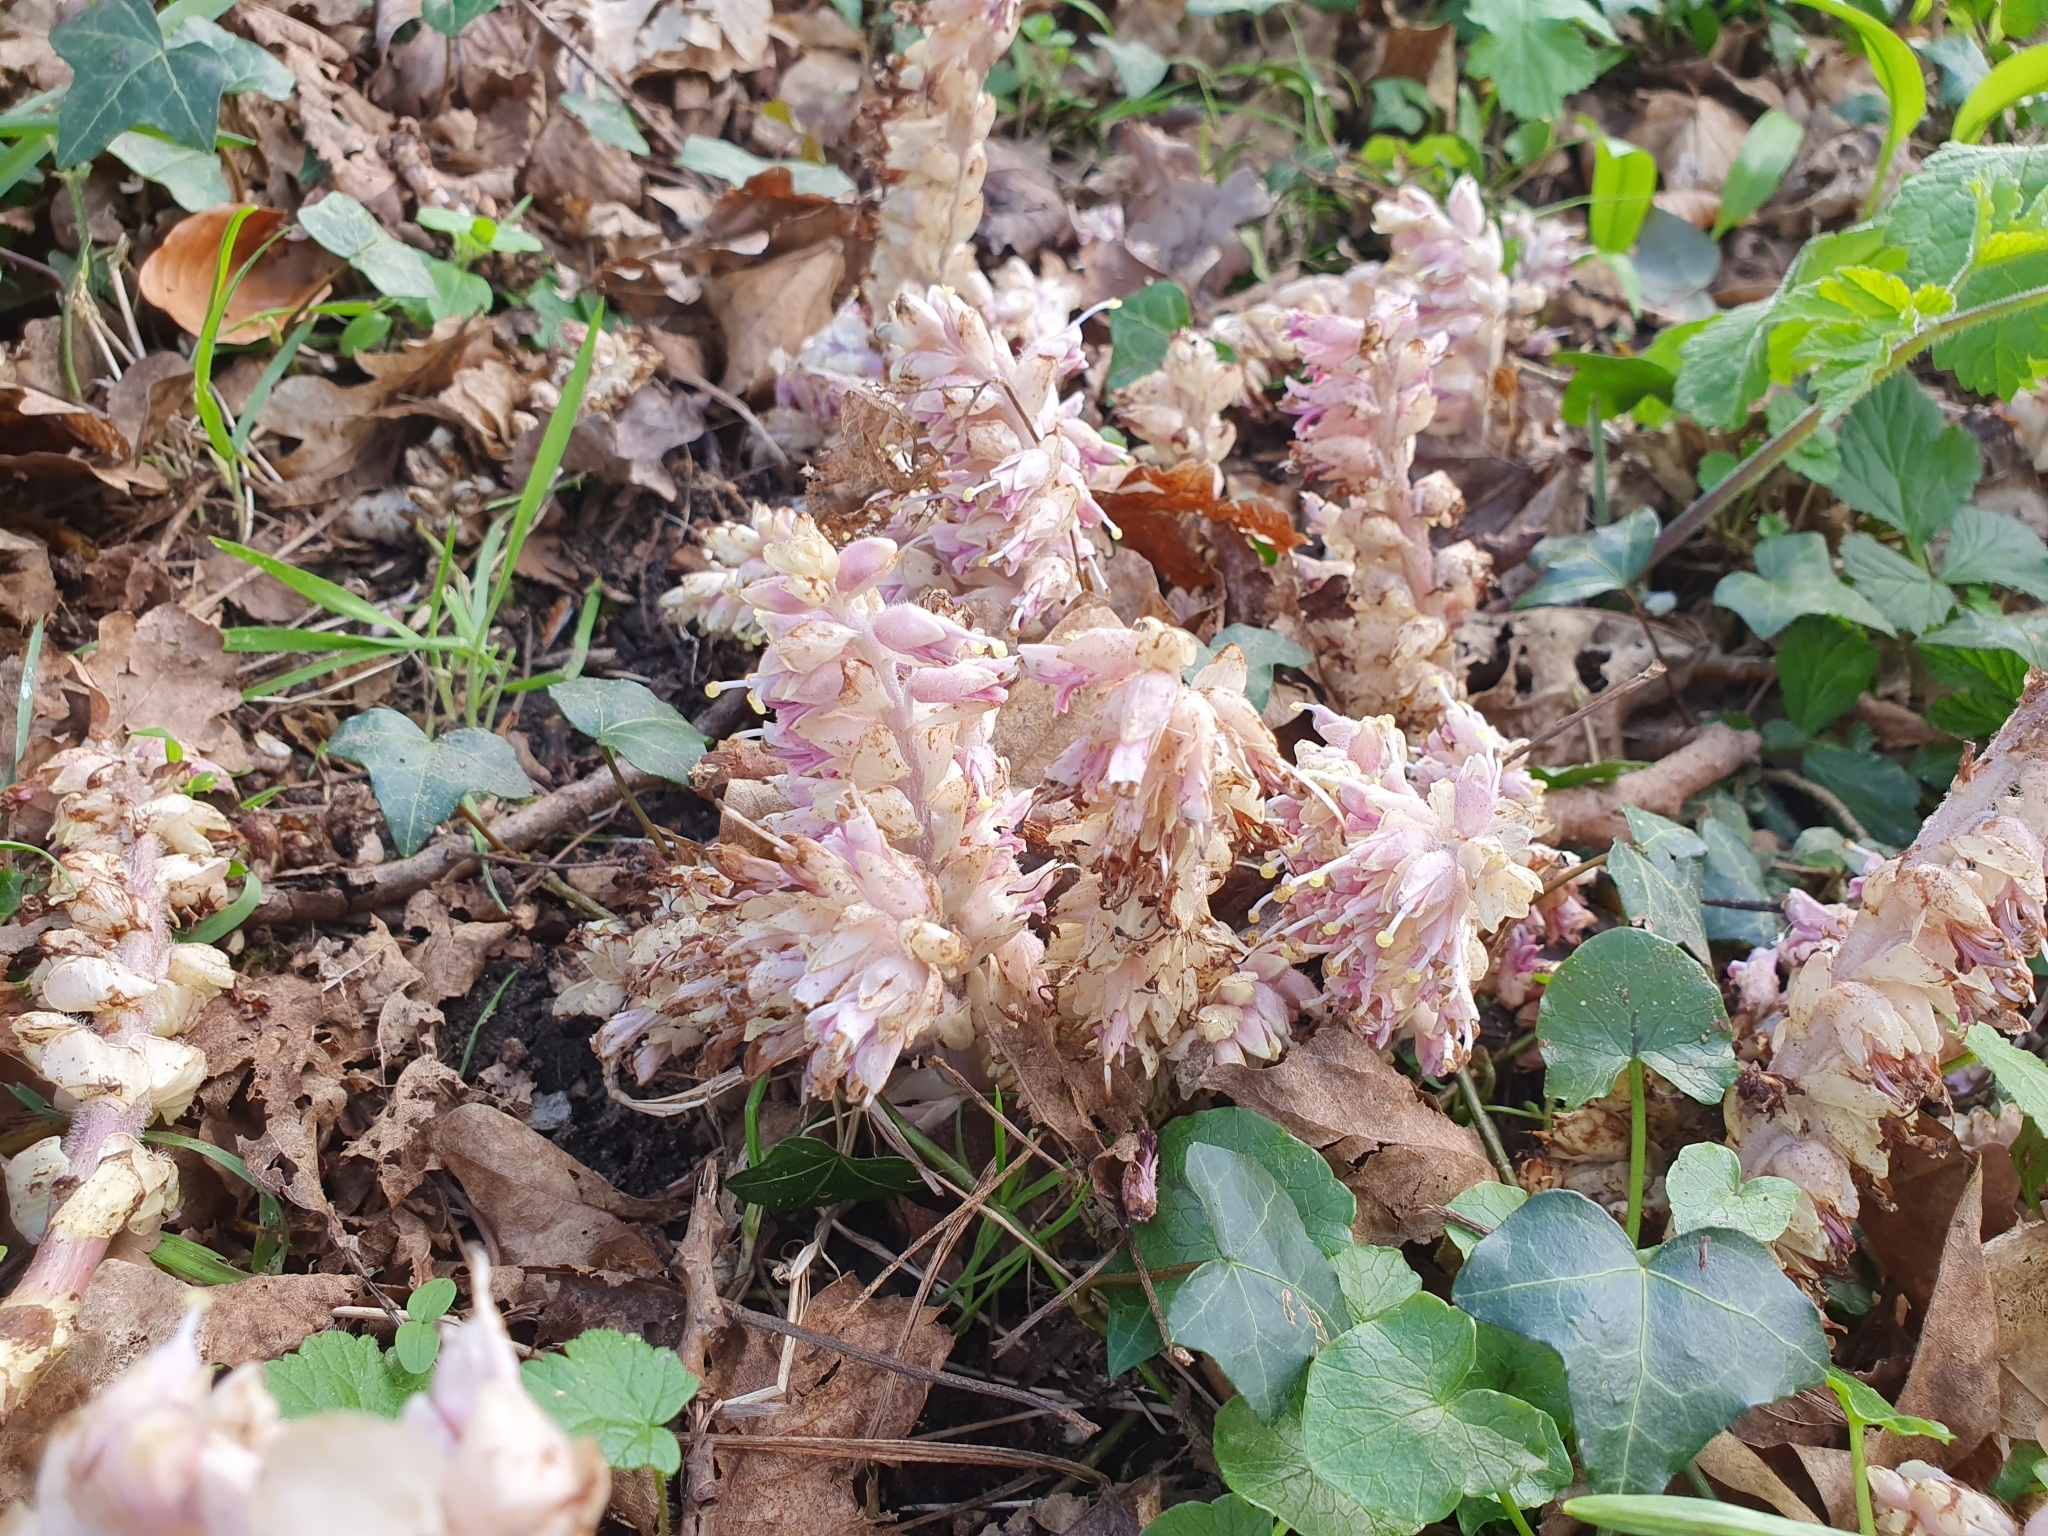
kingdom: Plantae
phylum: Tracheophyta
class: Magnoliopsida
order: Lamiales
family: Orobanchaceae
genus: Lathraea
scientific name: Lathraea squamaria
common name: Toothwort
